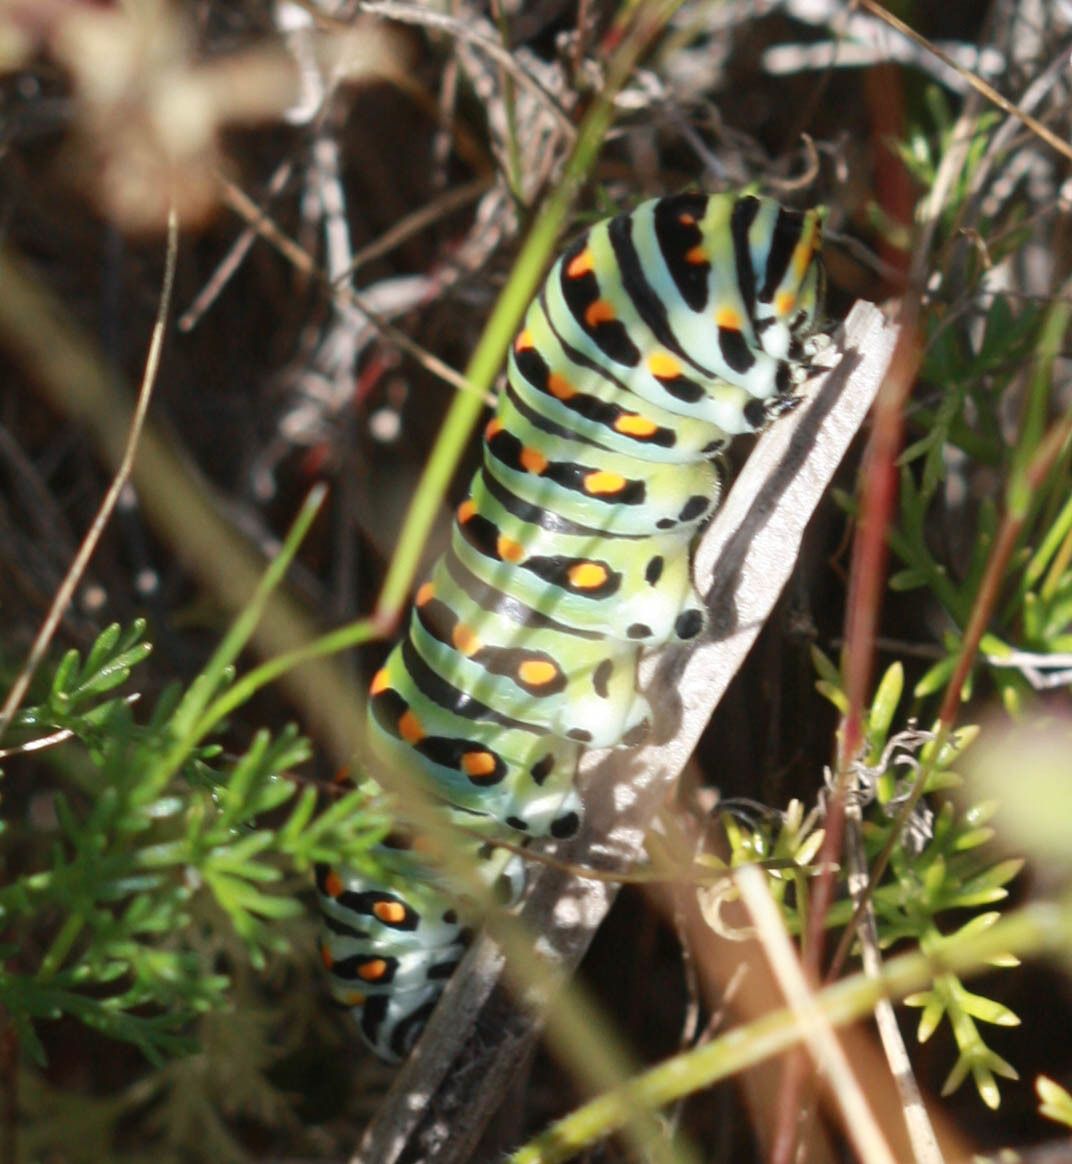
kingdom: Animalia
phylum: Arthropoda
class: Insecta
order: Lepidoptera
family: Papilionidae
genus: Papilio
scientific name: Papilio zelicaon
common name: Anise swallowtail
